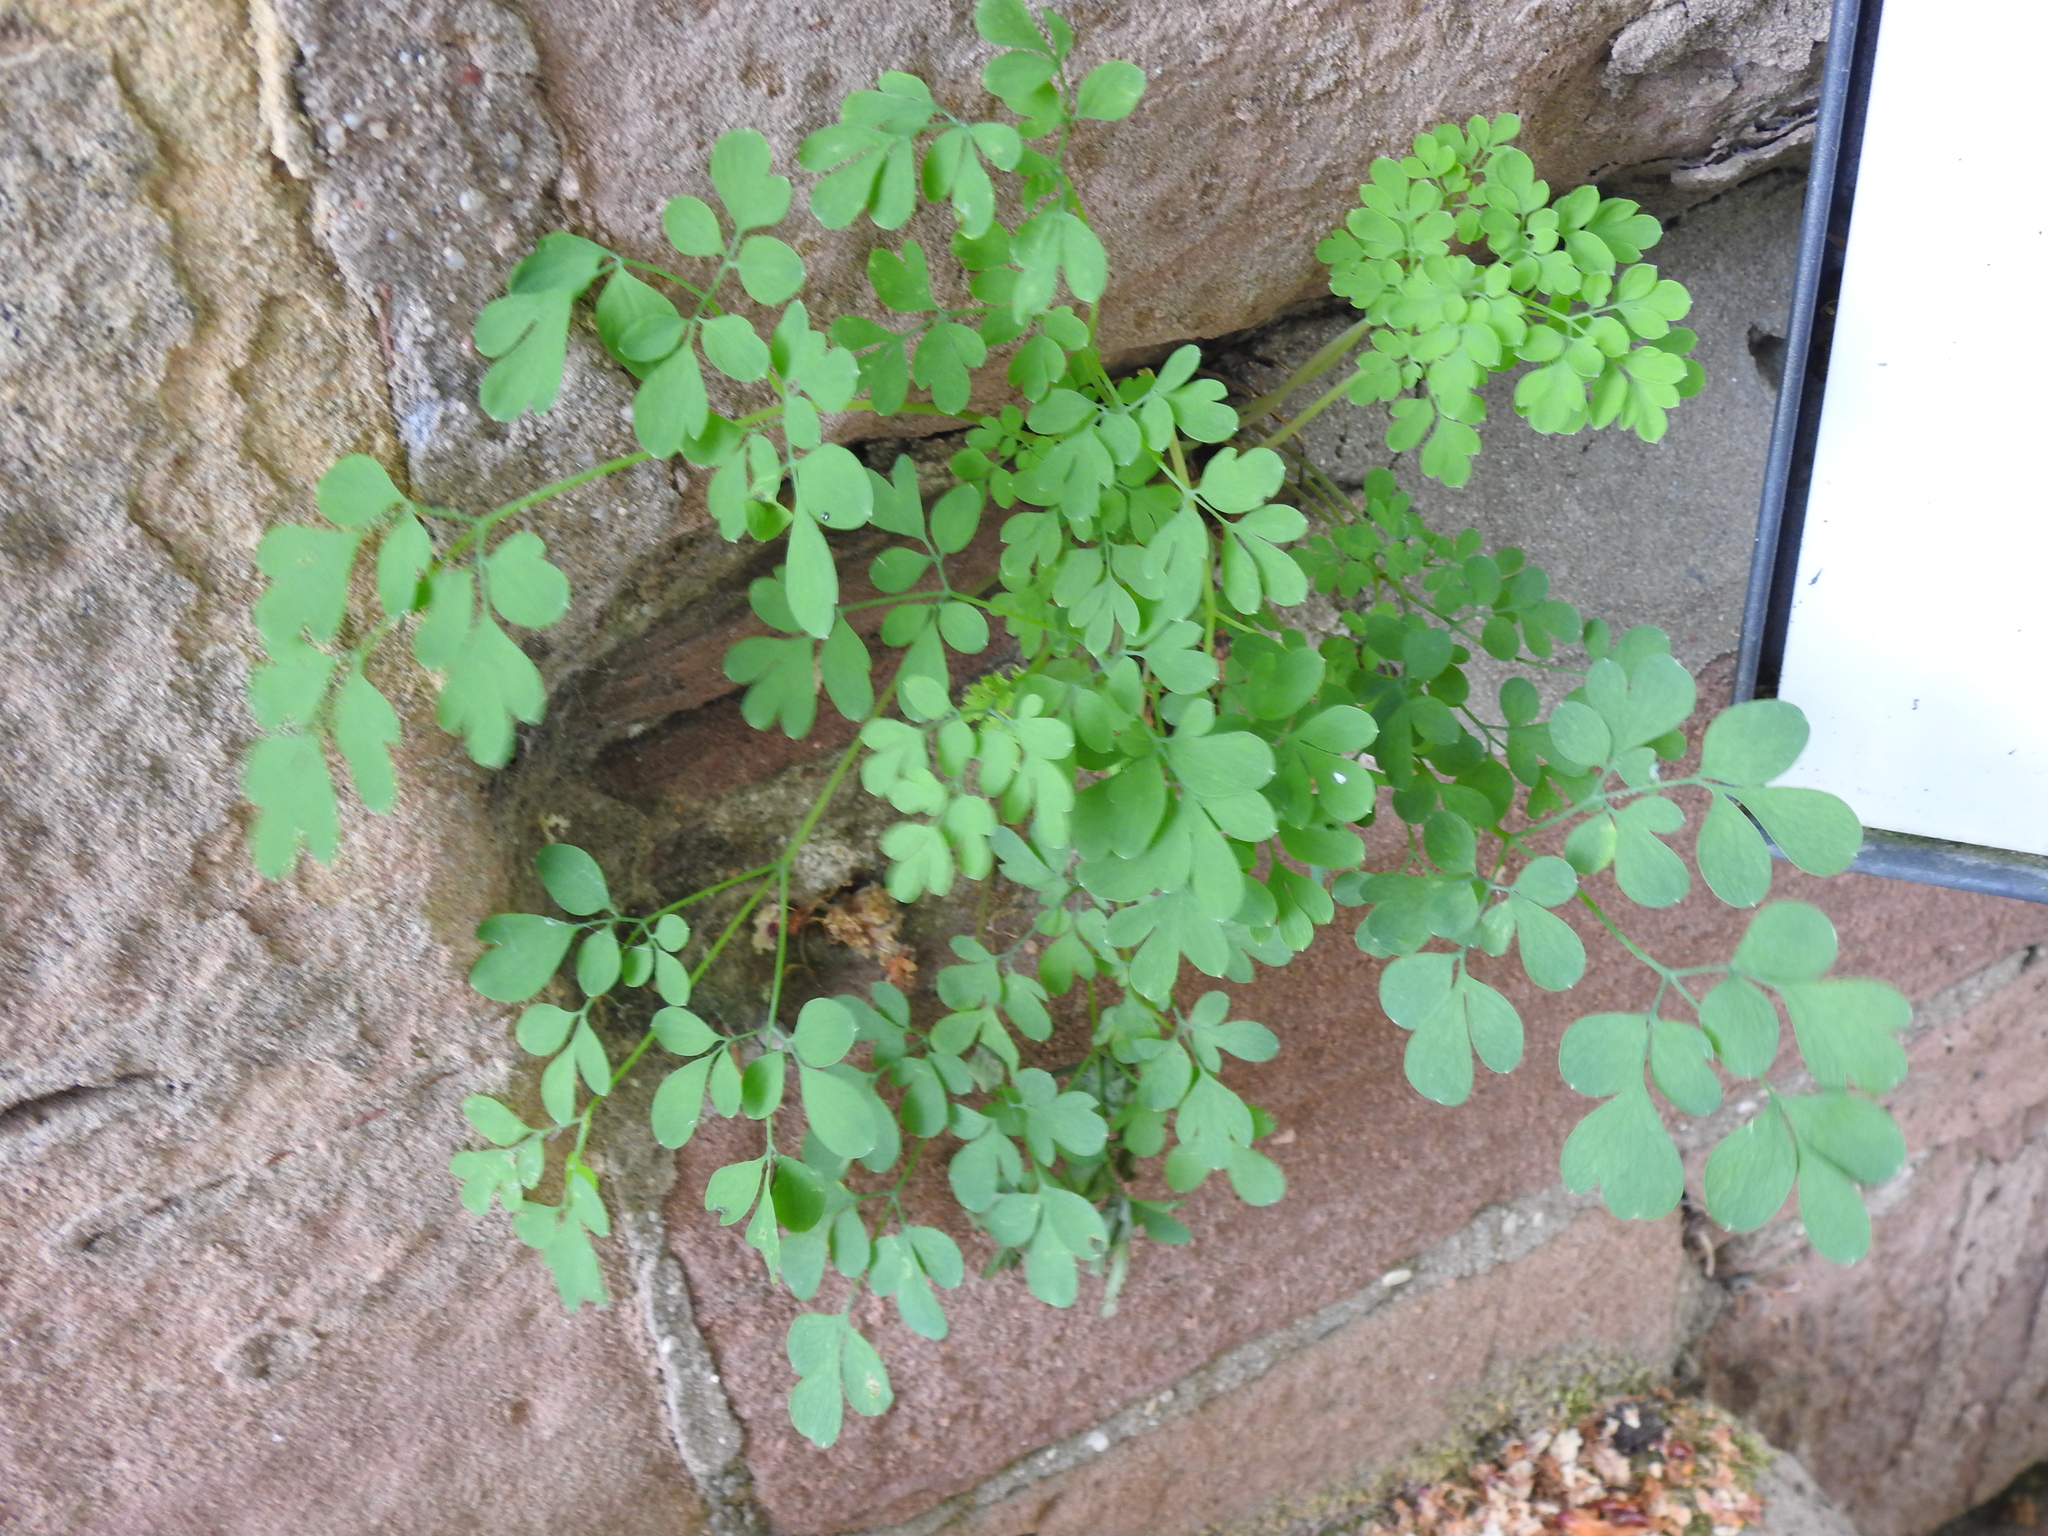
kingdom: Plantae
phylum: Tracheophyta
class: Magnoliopsida
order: Ranunculales
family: Papaveraceae
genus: Pseudofumaria
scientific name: Pseudofumaria lutea
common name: Yellow corydalis
